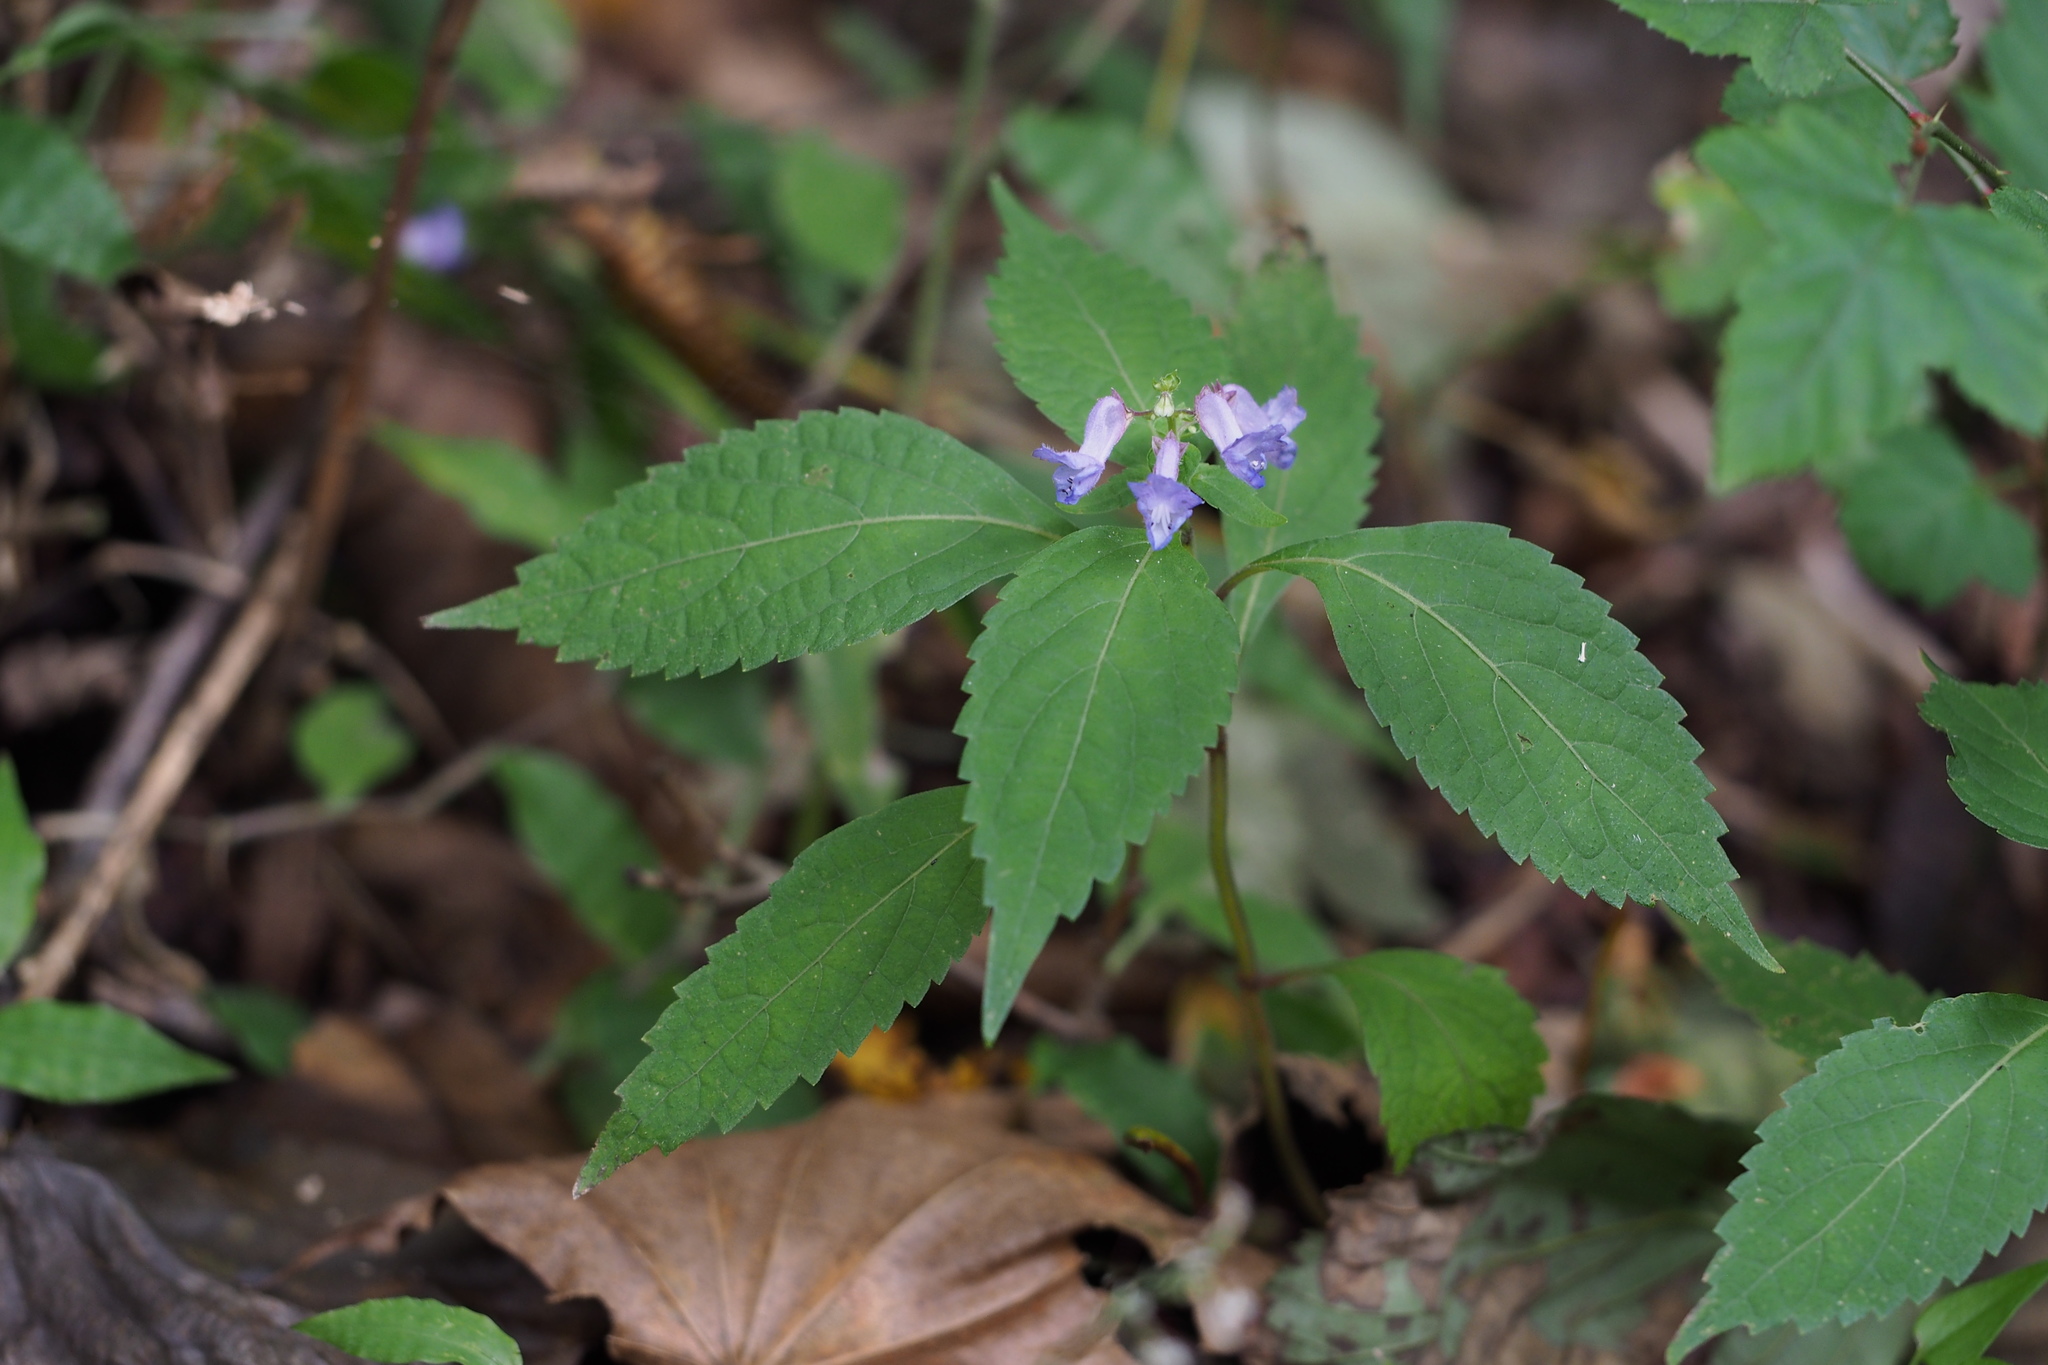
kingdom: Plantae
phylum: Tracheophyta
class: Magnoliopsida
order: Lamiales
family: Lamiaceae
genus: Isodon
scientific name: Isodon effusus
